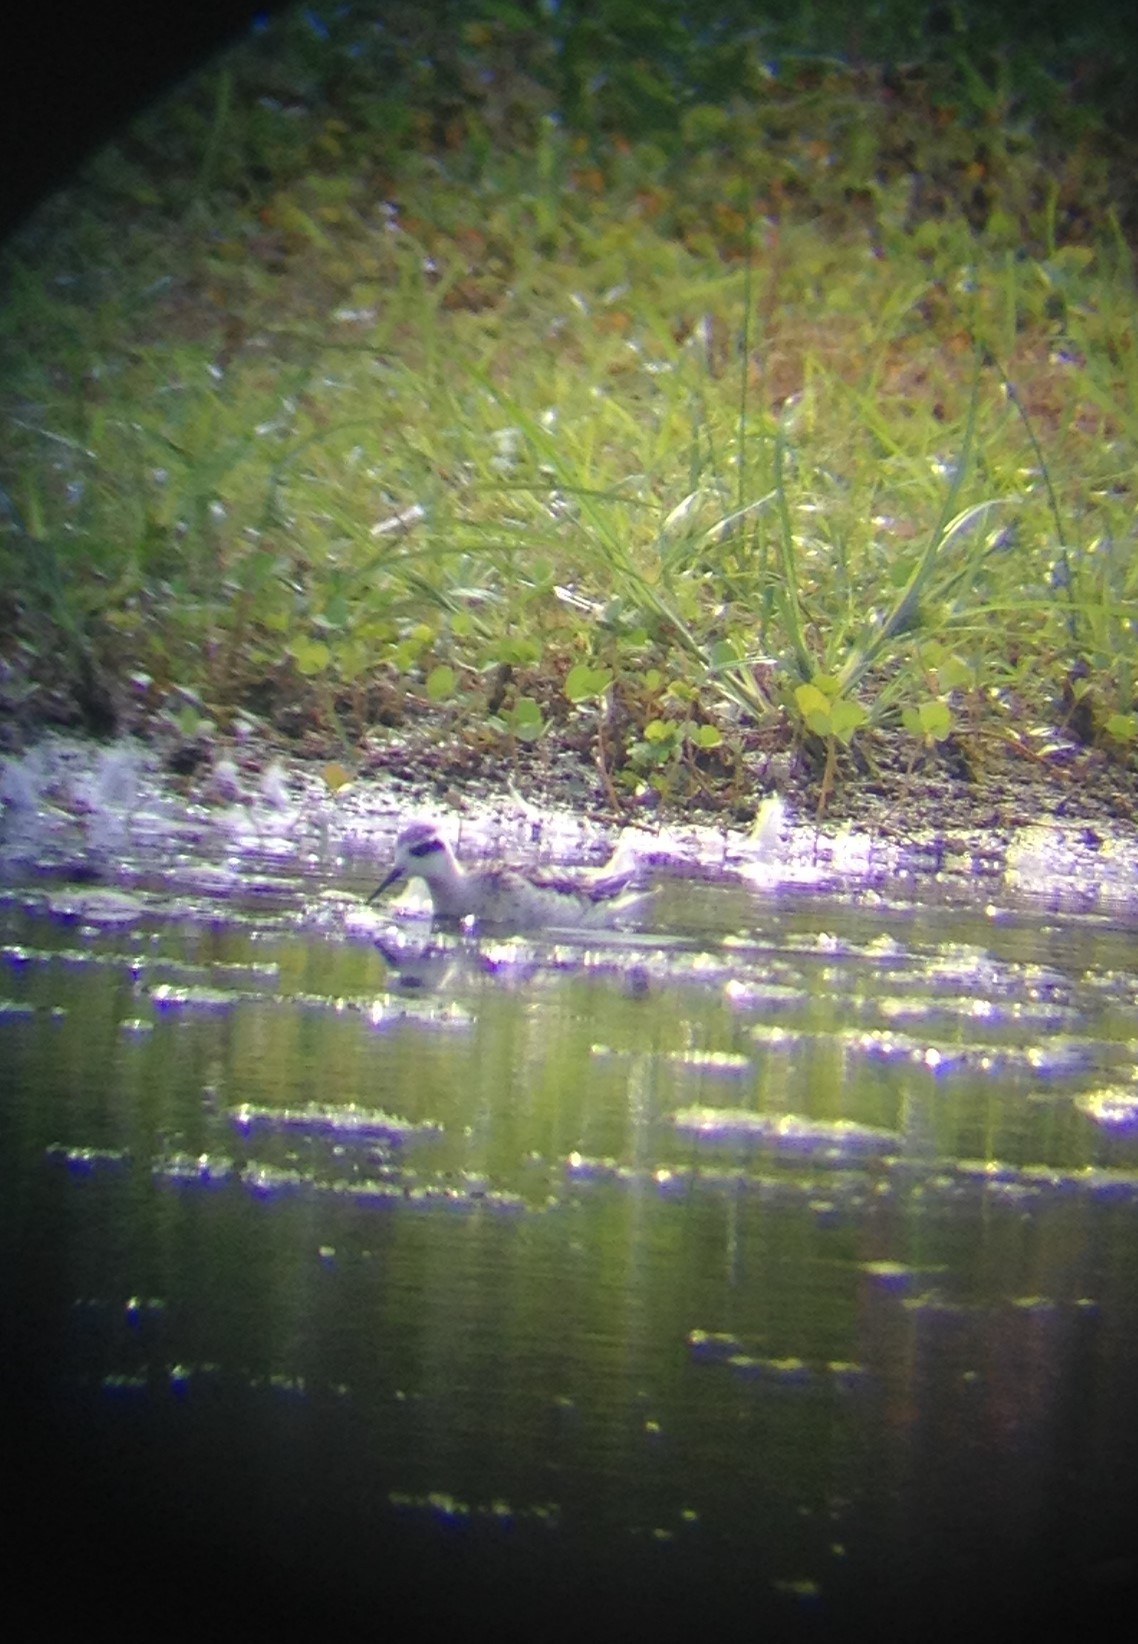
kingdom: Animalia
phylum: Chordata
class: Aves
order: Charadriiformes
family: Scolopacidae
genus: Phalaropus
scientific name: Phalaropus lobatus
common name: Red-necked phalarope
